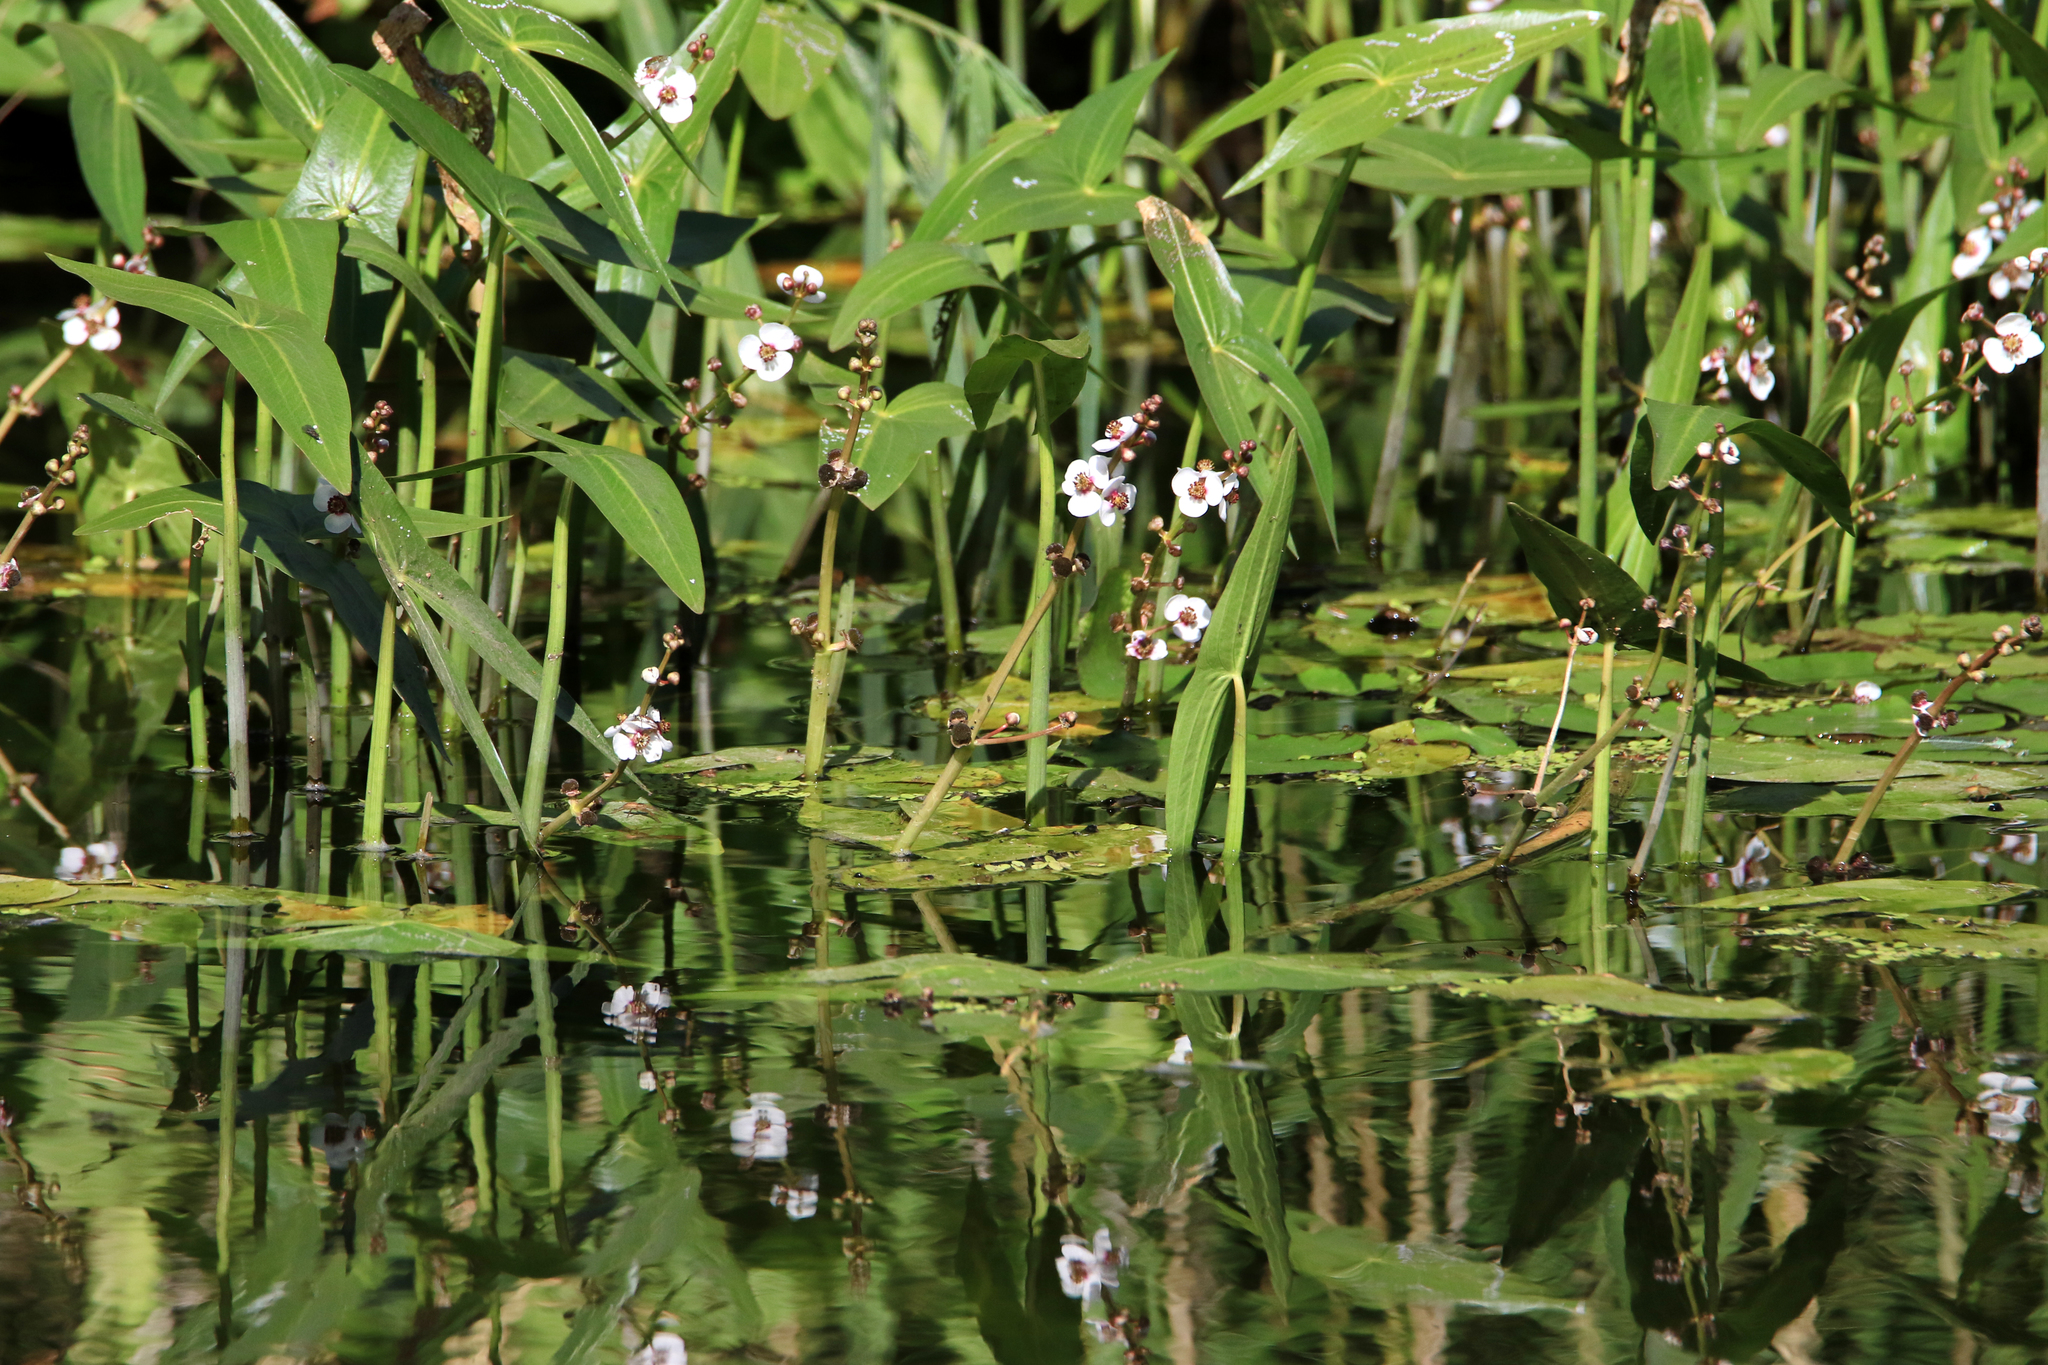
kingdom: Plantae
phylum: Tracheophyta
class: Liliopsida
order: Alismatales
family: Alismataceae
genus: Sagittaria
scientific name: Sagittaria sagittifolia
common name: Arrowhead
